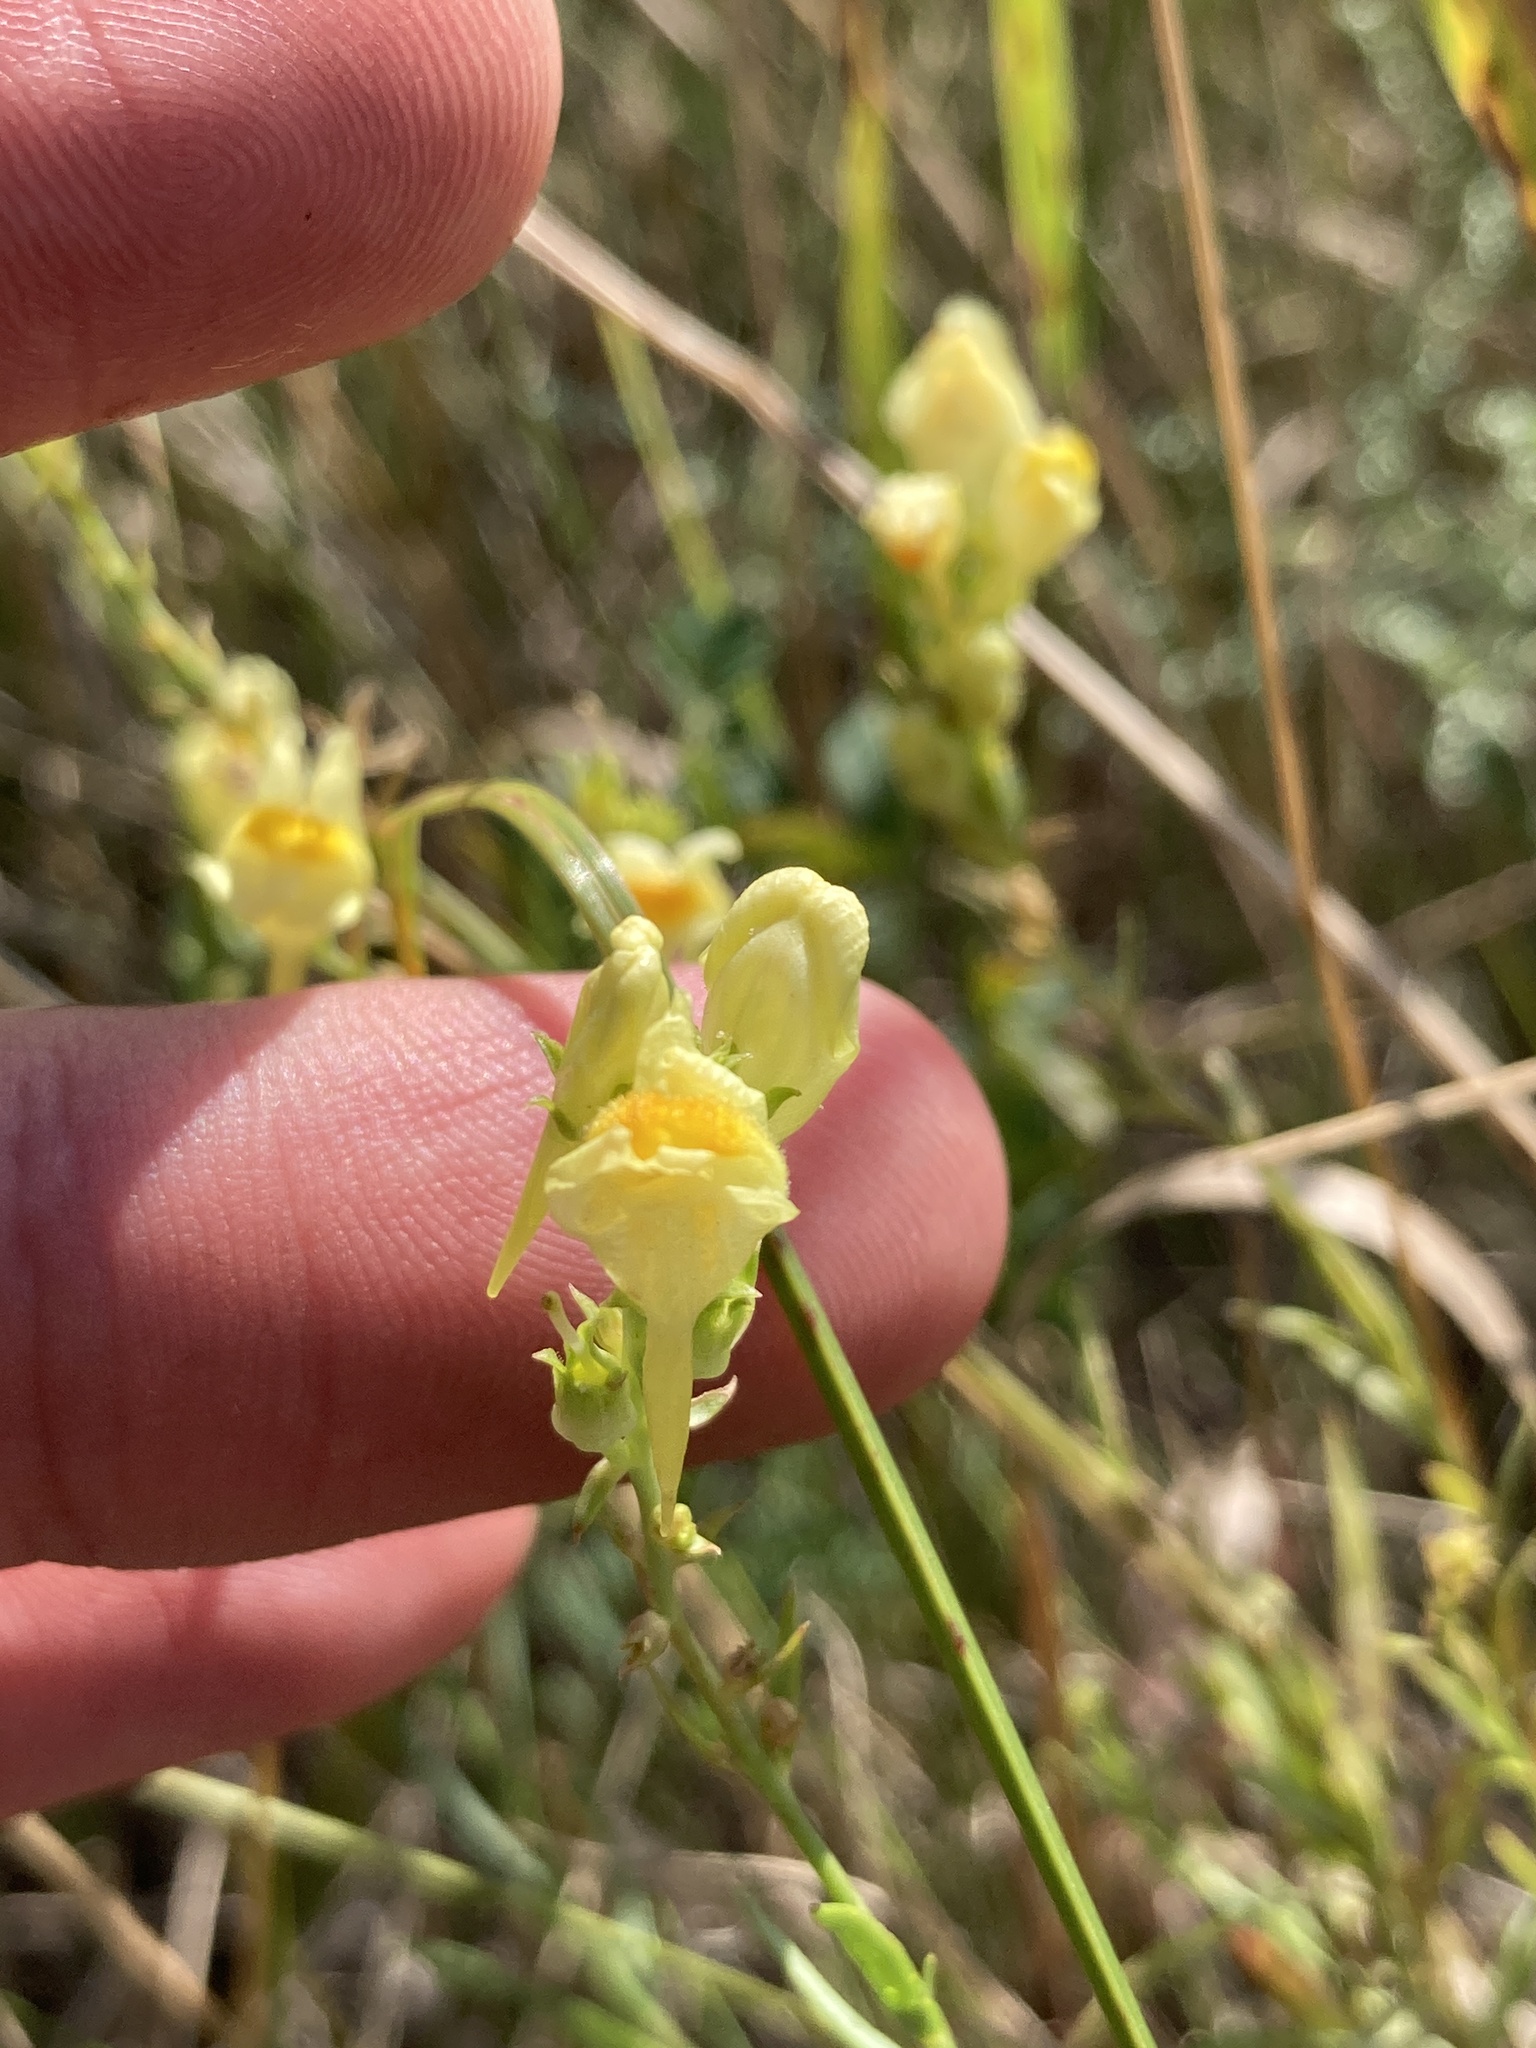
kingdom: Plantae
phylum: Tracheophyta
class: Magnoliopsida
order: Lamiales
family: Plantaginaceae
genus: Linaria
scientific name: Linaria vulgaris
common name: Butter and eggs
